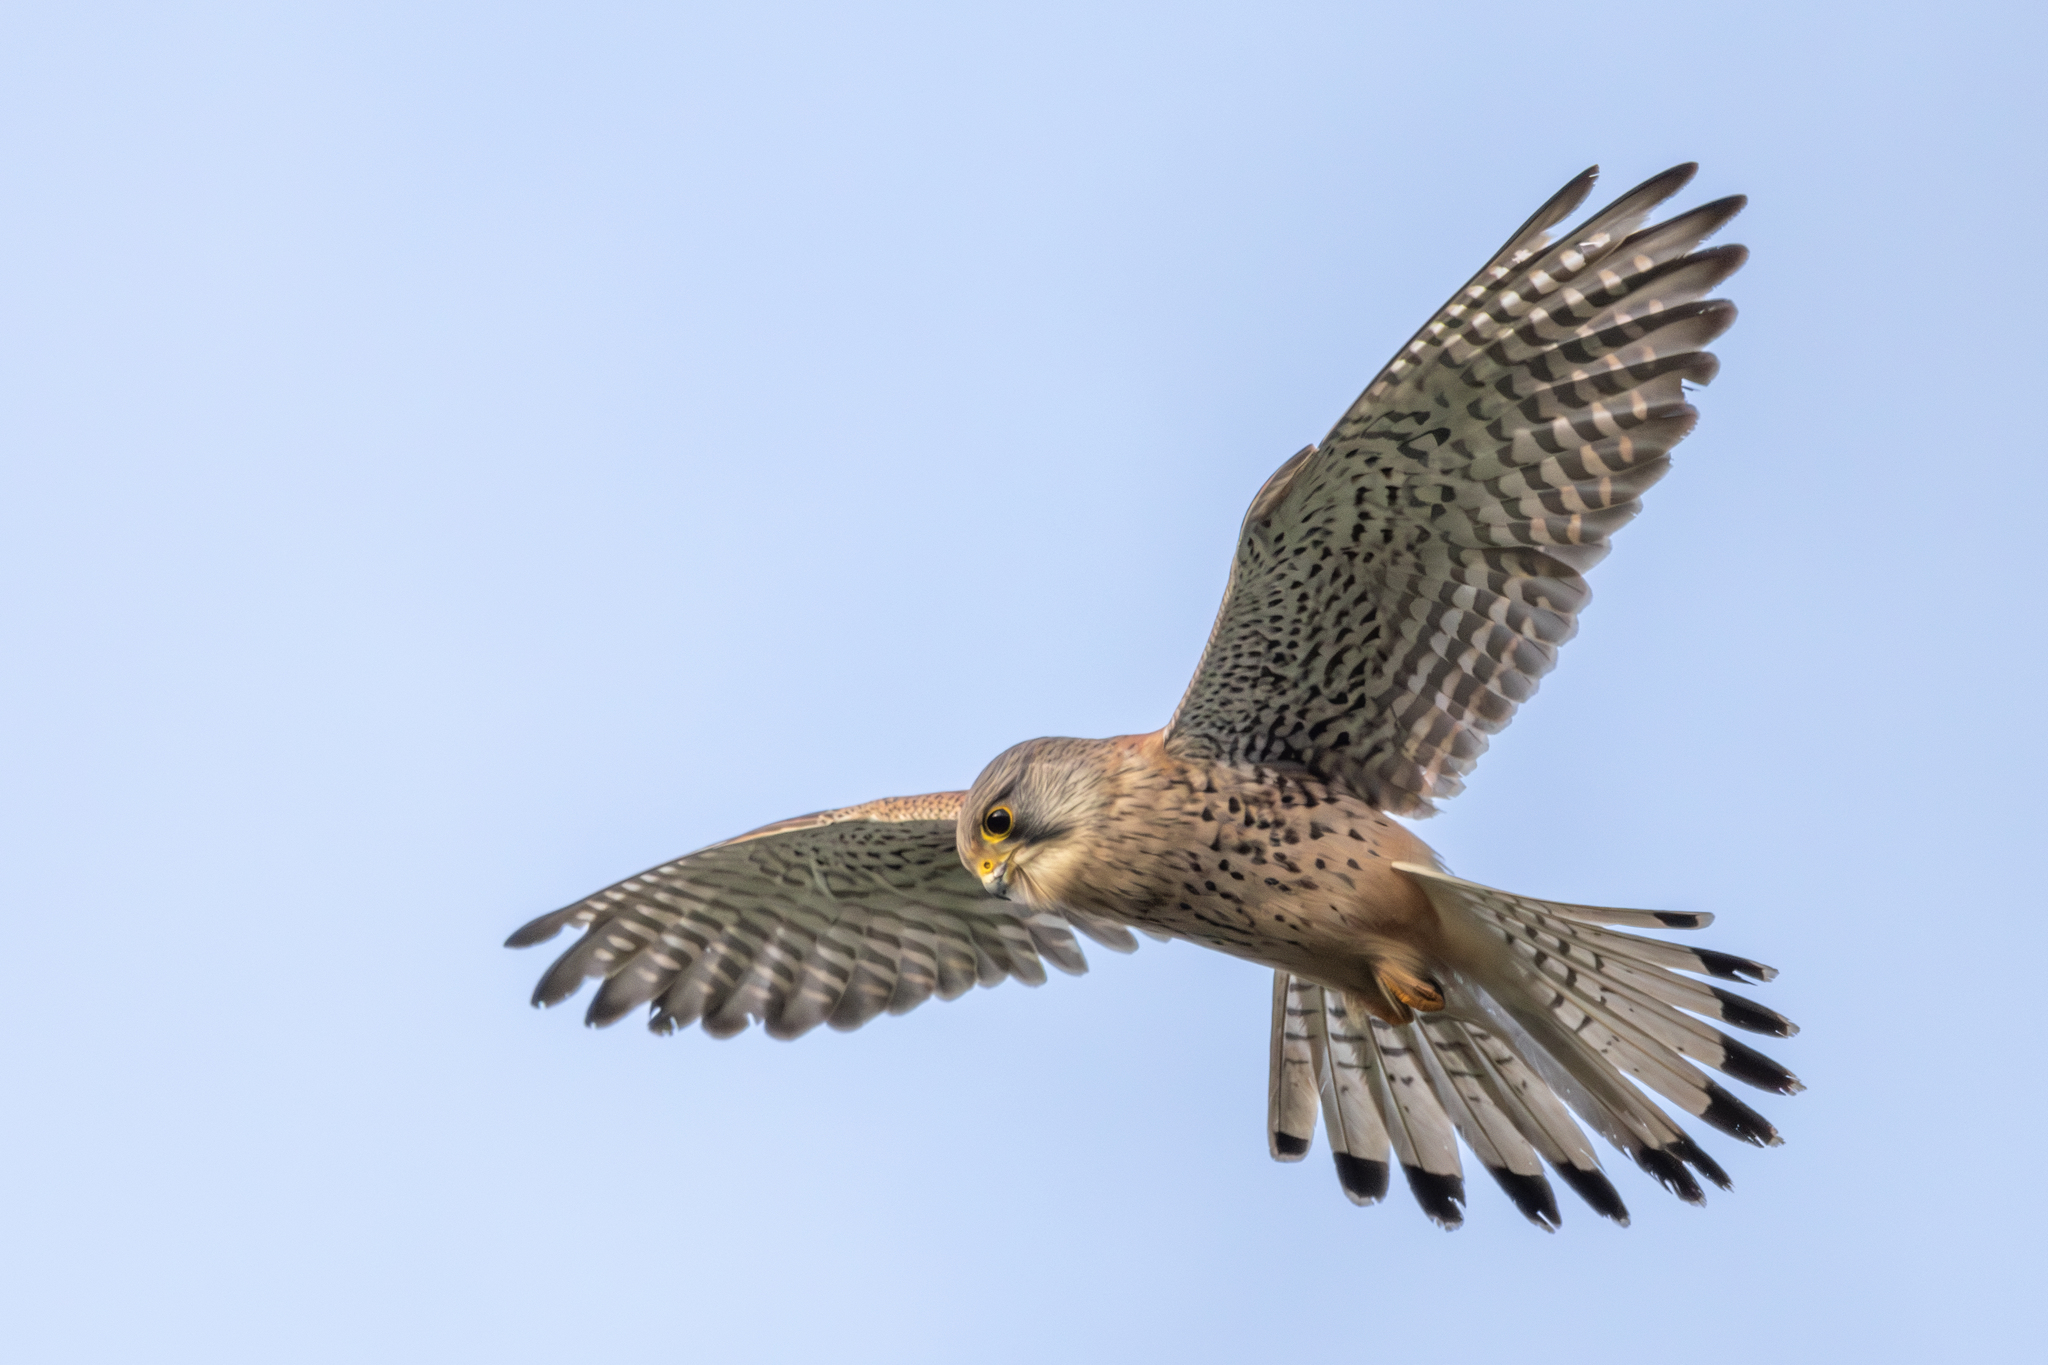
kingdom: Animalia
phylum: Chordata
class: Aves
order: Falconiformes
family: Falconidae
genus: Falco
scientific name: Falco tinnunculus
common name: Common kestrel
